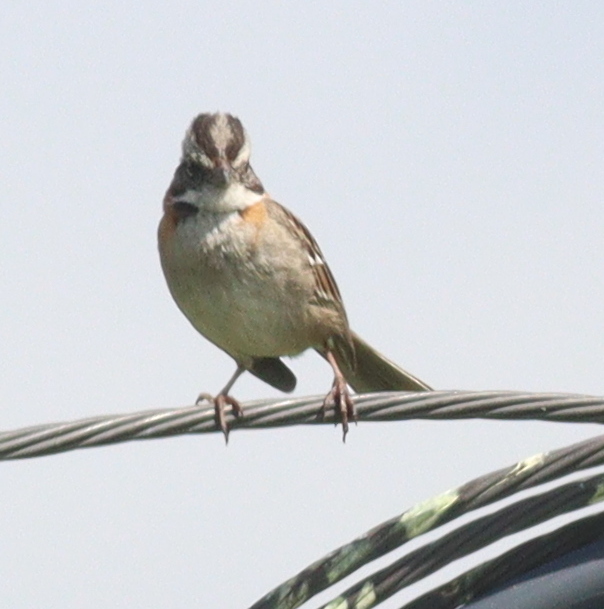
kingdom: Animalia
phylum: Chordata
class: Aves
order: Passeriformes
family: Passerellidae
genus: Zonotrichia
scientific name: Zonotrichia capensis
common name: Rufous-collared sparrow
